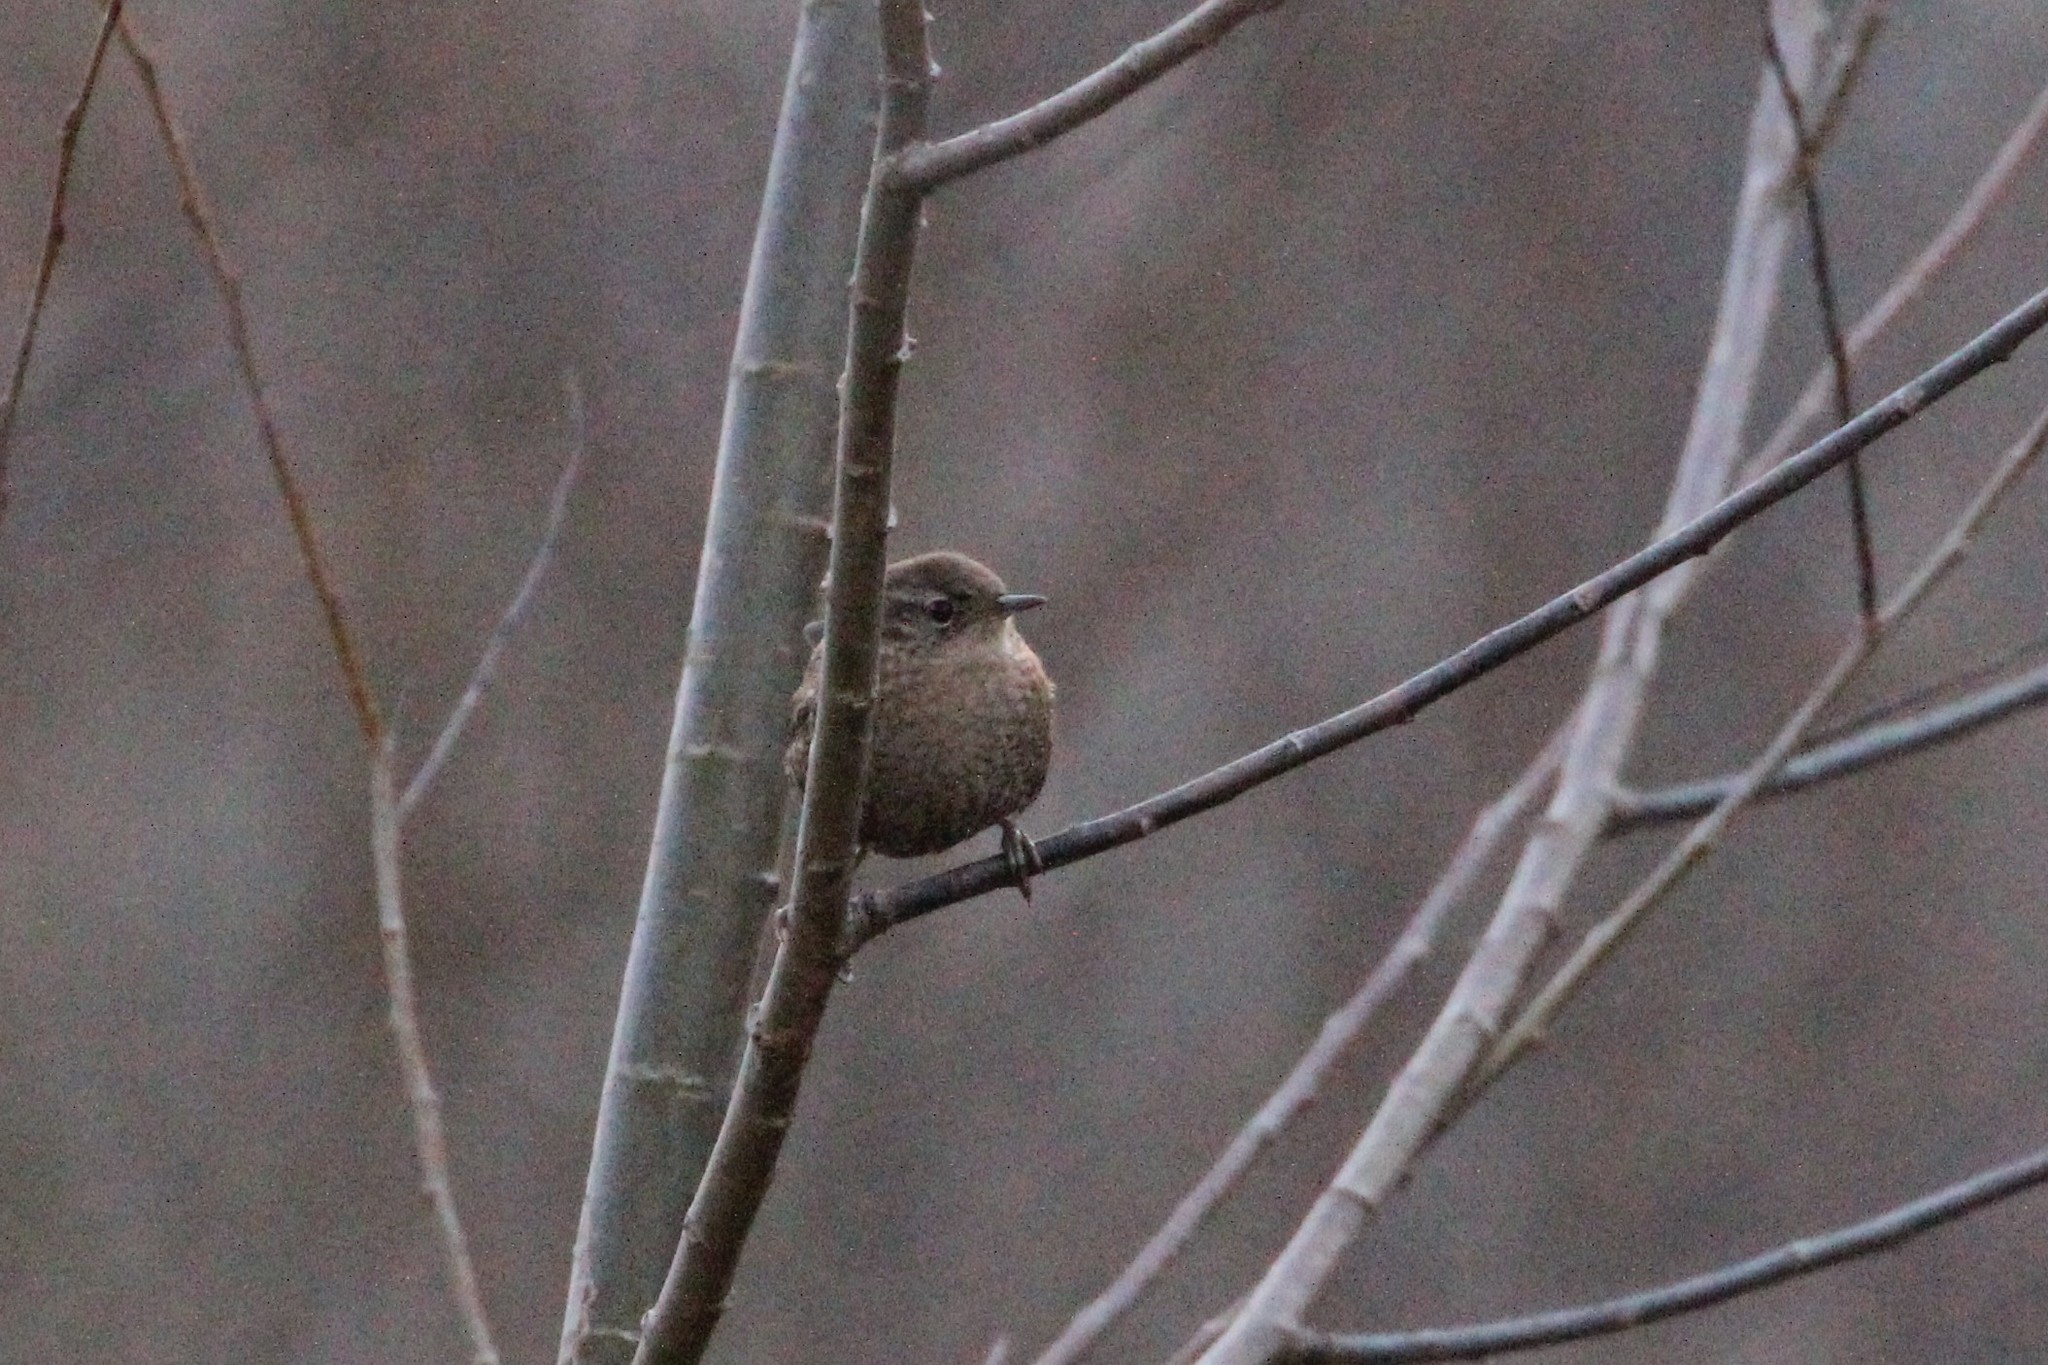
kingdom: Animalia
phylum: Chordata
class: Aves
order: Passeriformes
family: Troglodytidae
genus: Troglodytes
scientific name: Troglodytes hiemalis
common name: Winter wren
